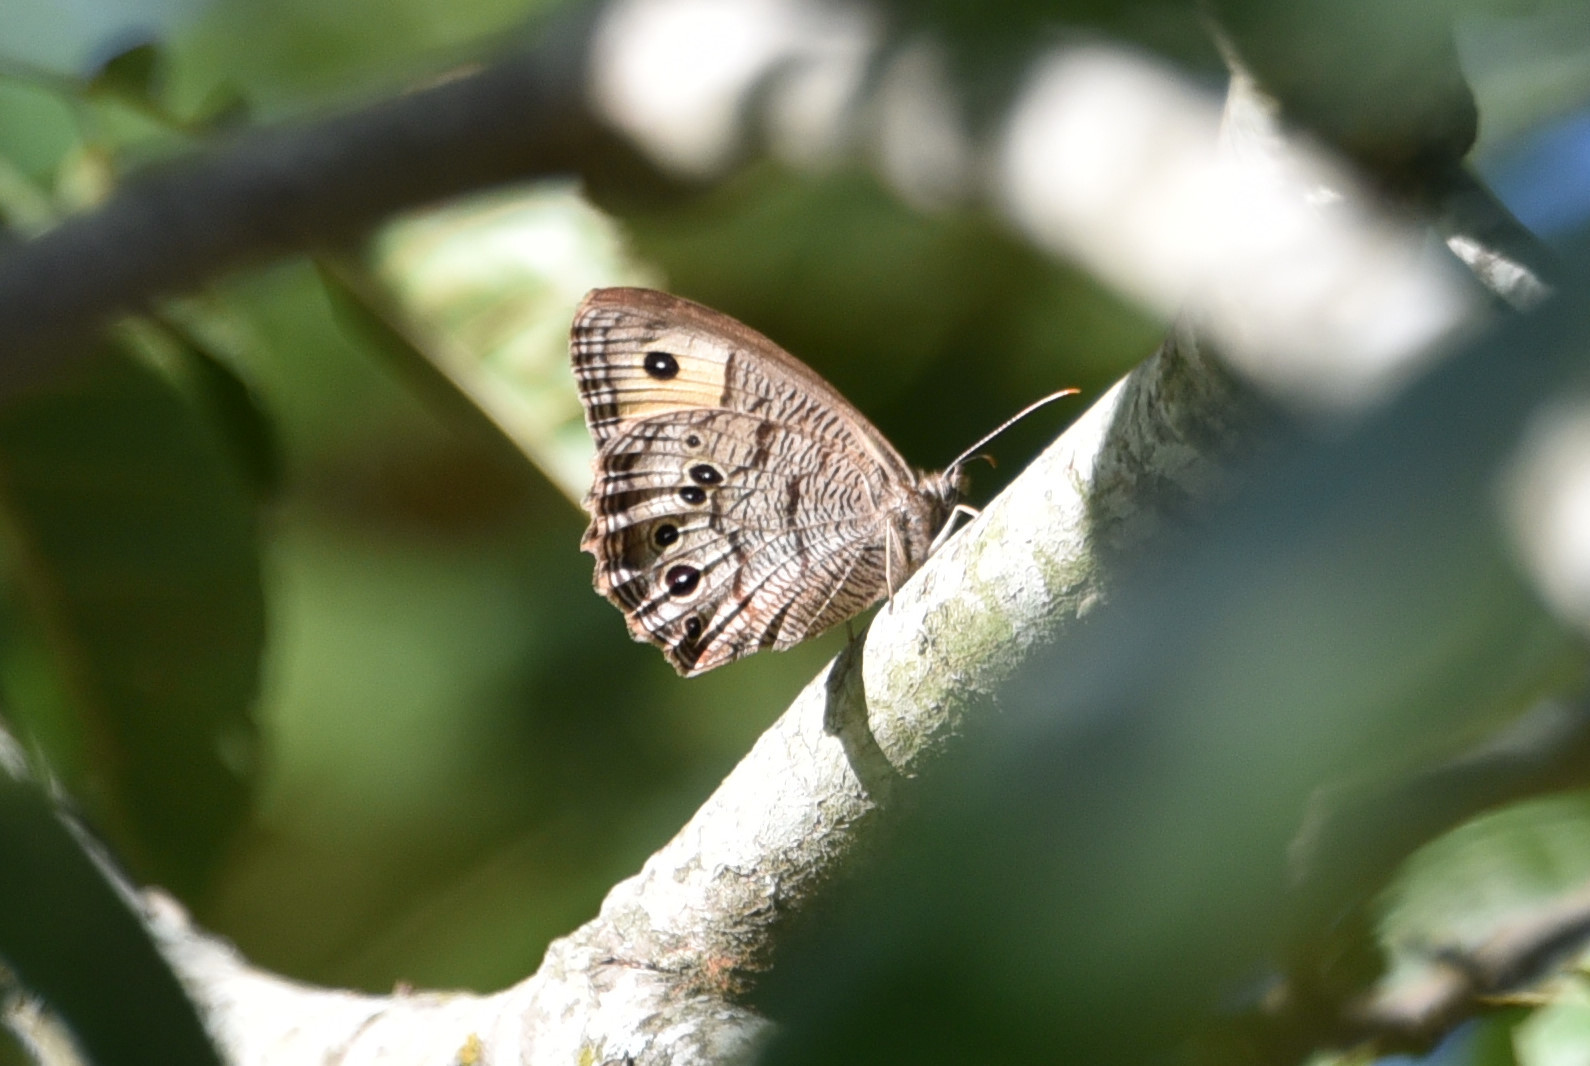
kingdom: Animalia
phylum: Arthropoda
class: Insecta
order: Lepidoptera
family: Nymphalidae
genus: Cercyonis
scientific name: Cercyonis pegala
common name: Common wood-nymph
